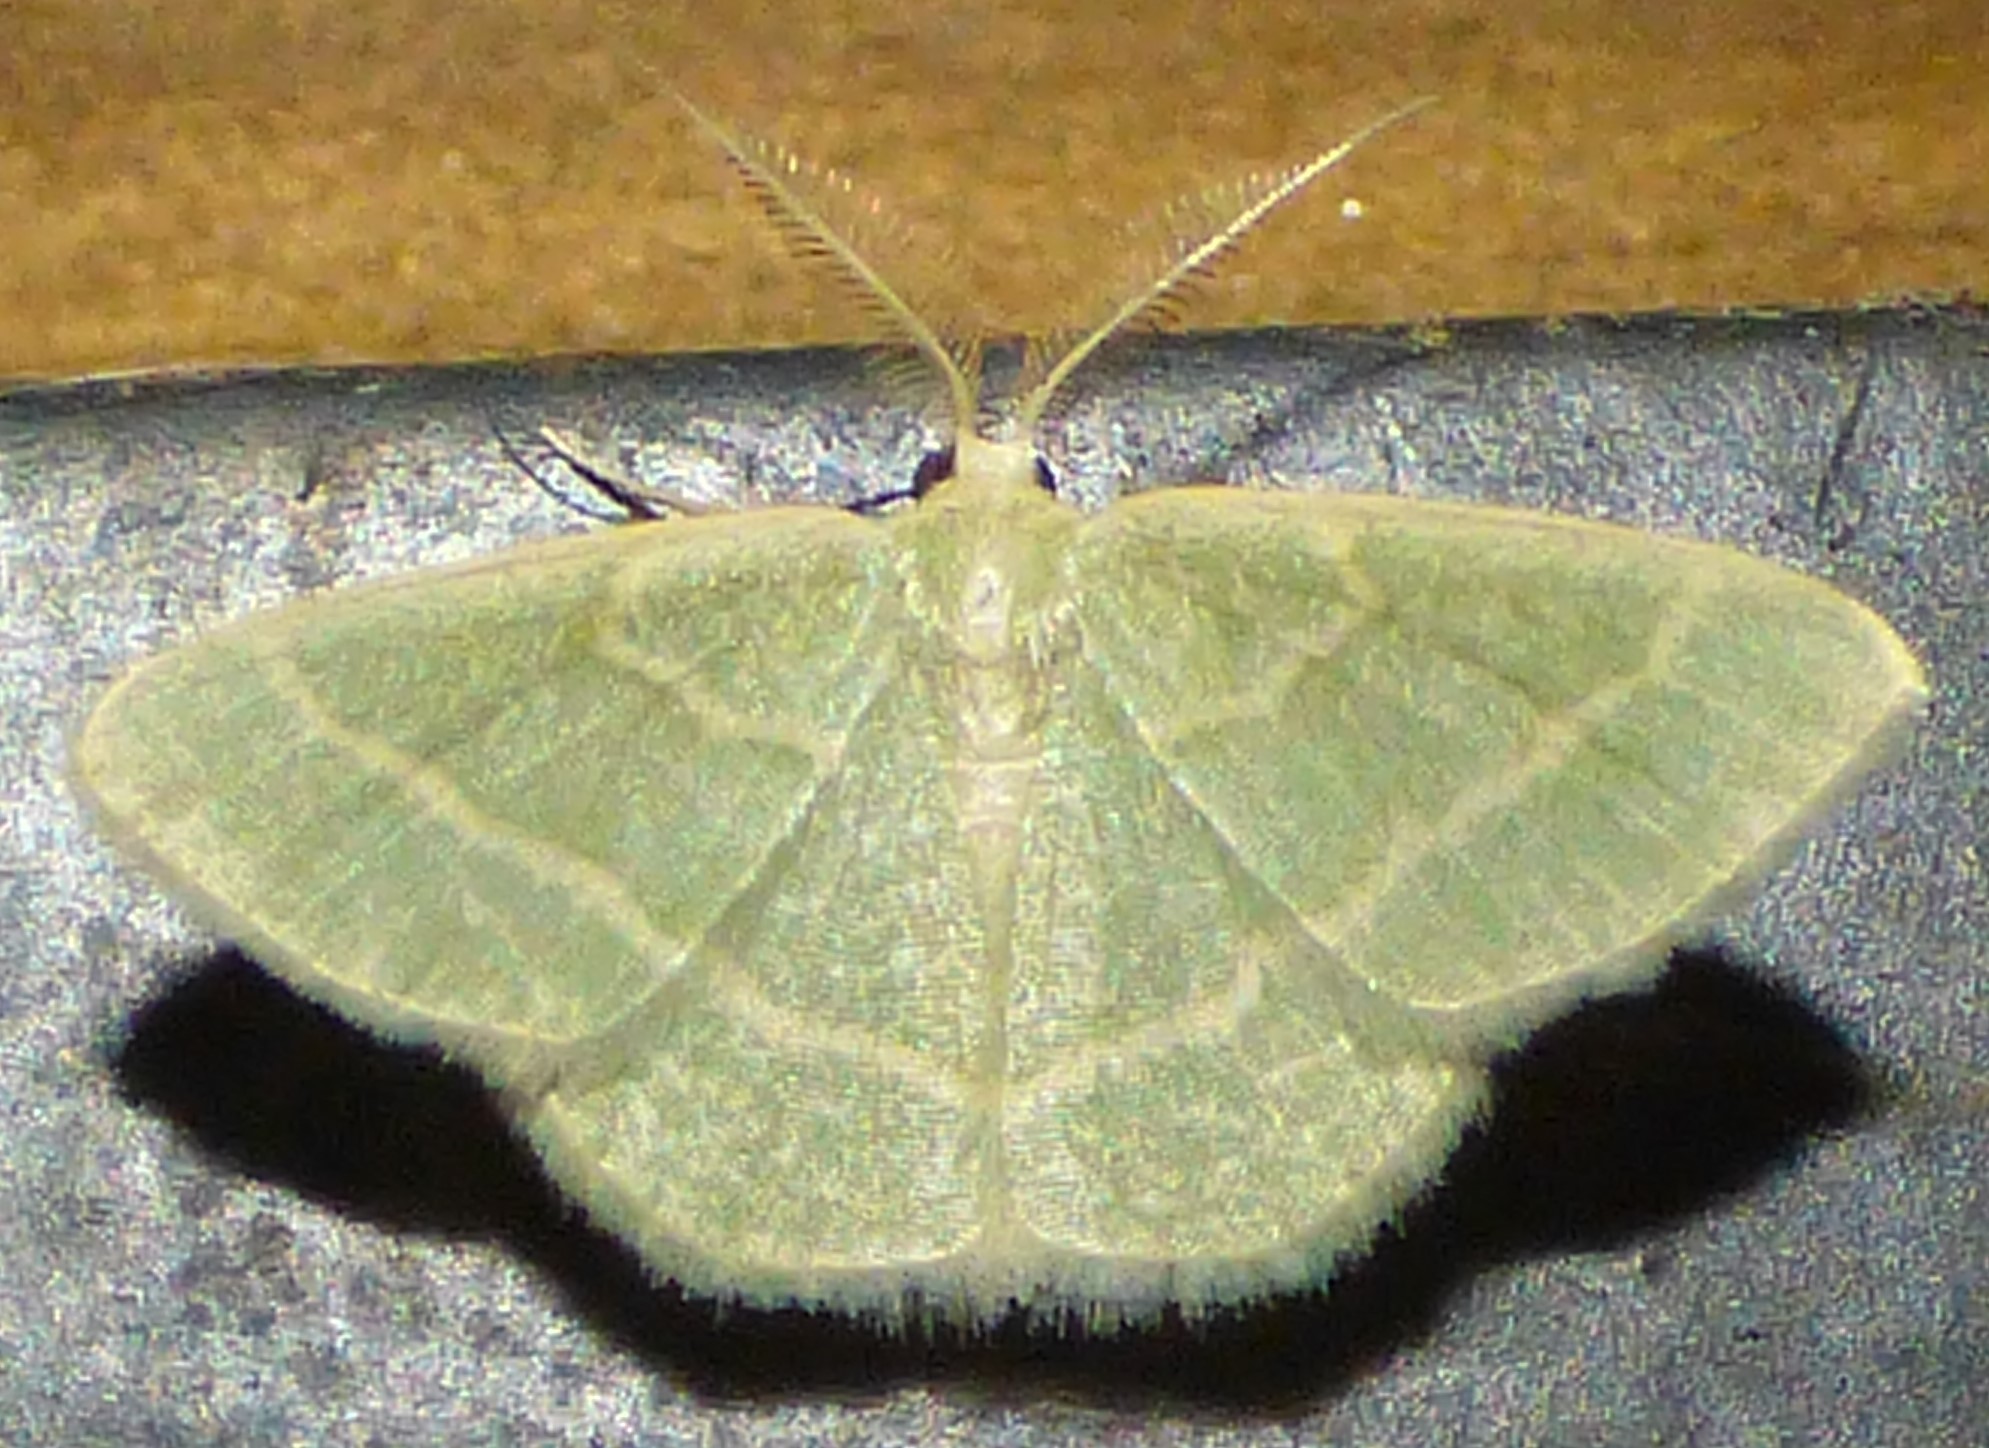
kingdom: Animalia
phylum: Arthropoda
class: Insecta
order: Lepidoptera
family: Geometridae
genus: Chlorochlamys
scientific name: Chlorochlamys chloroleucaria
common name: Blackberry looper
